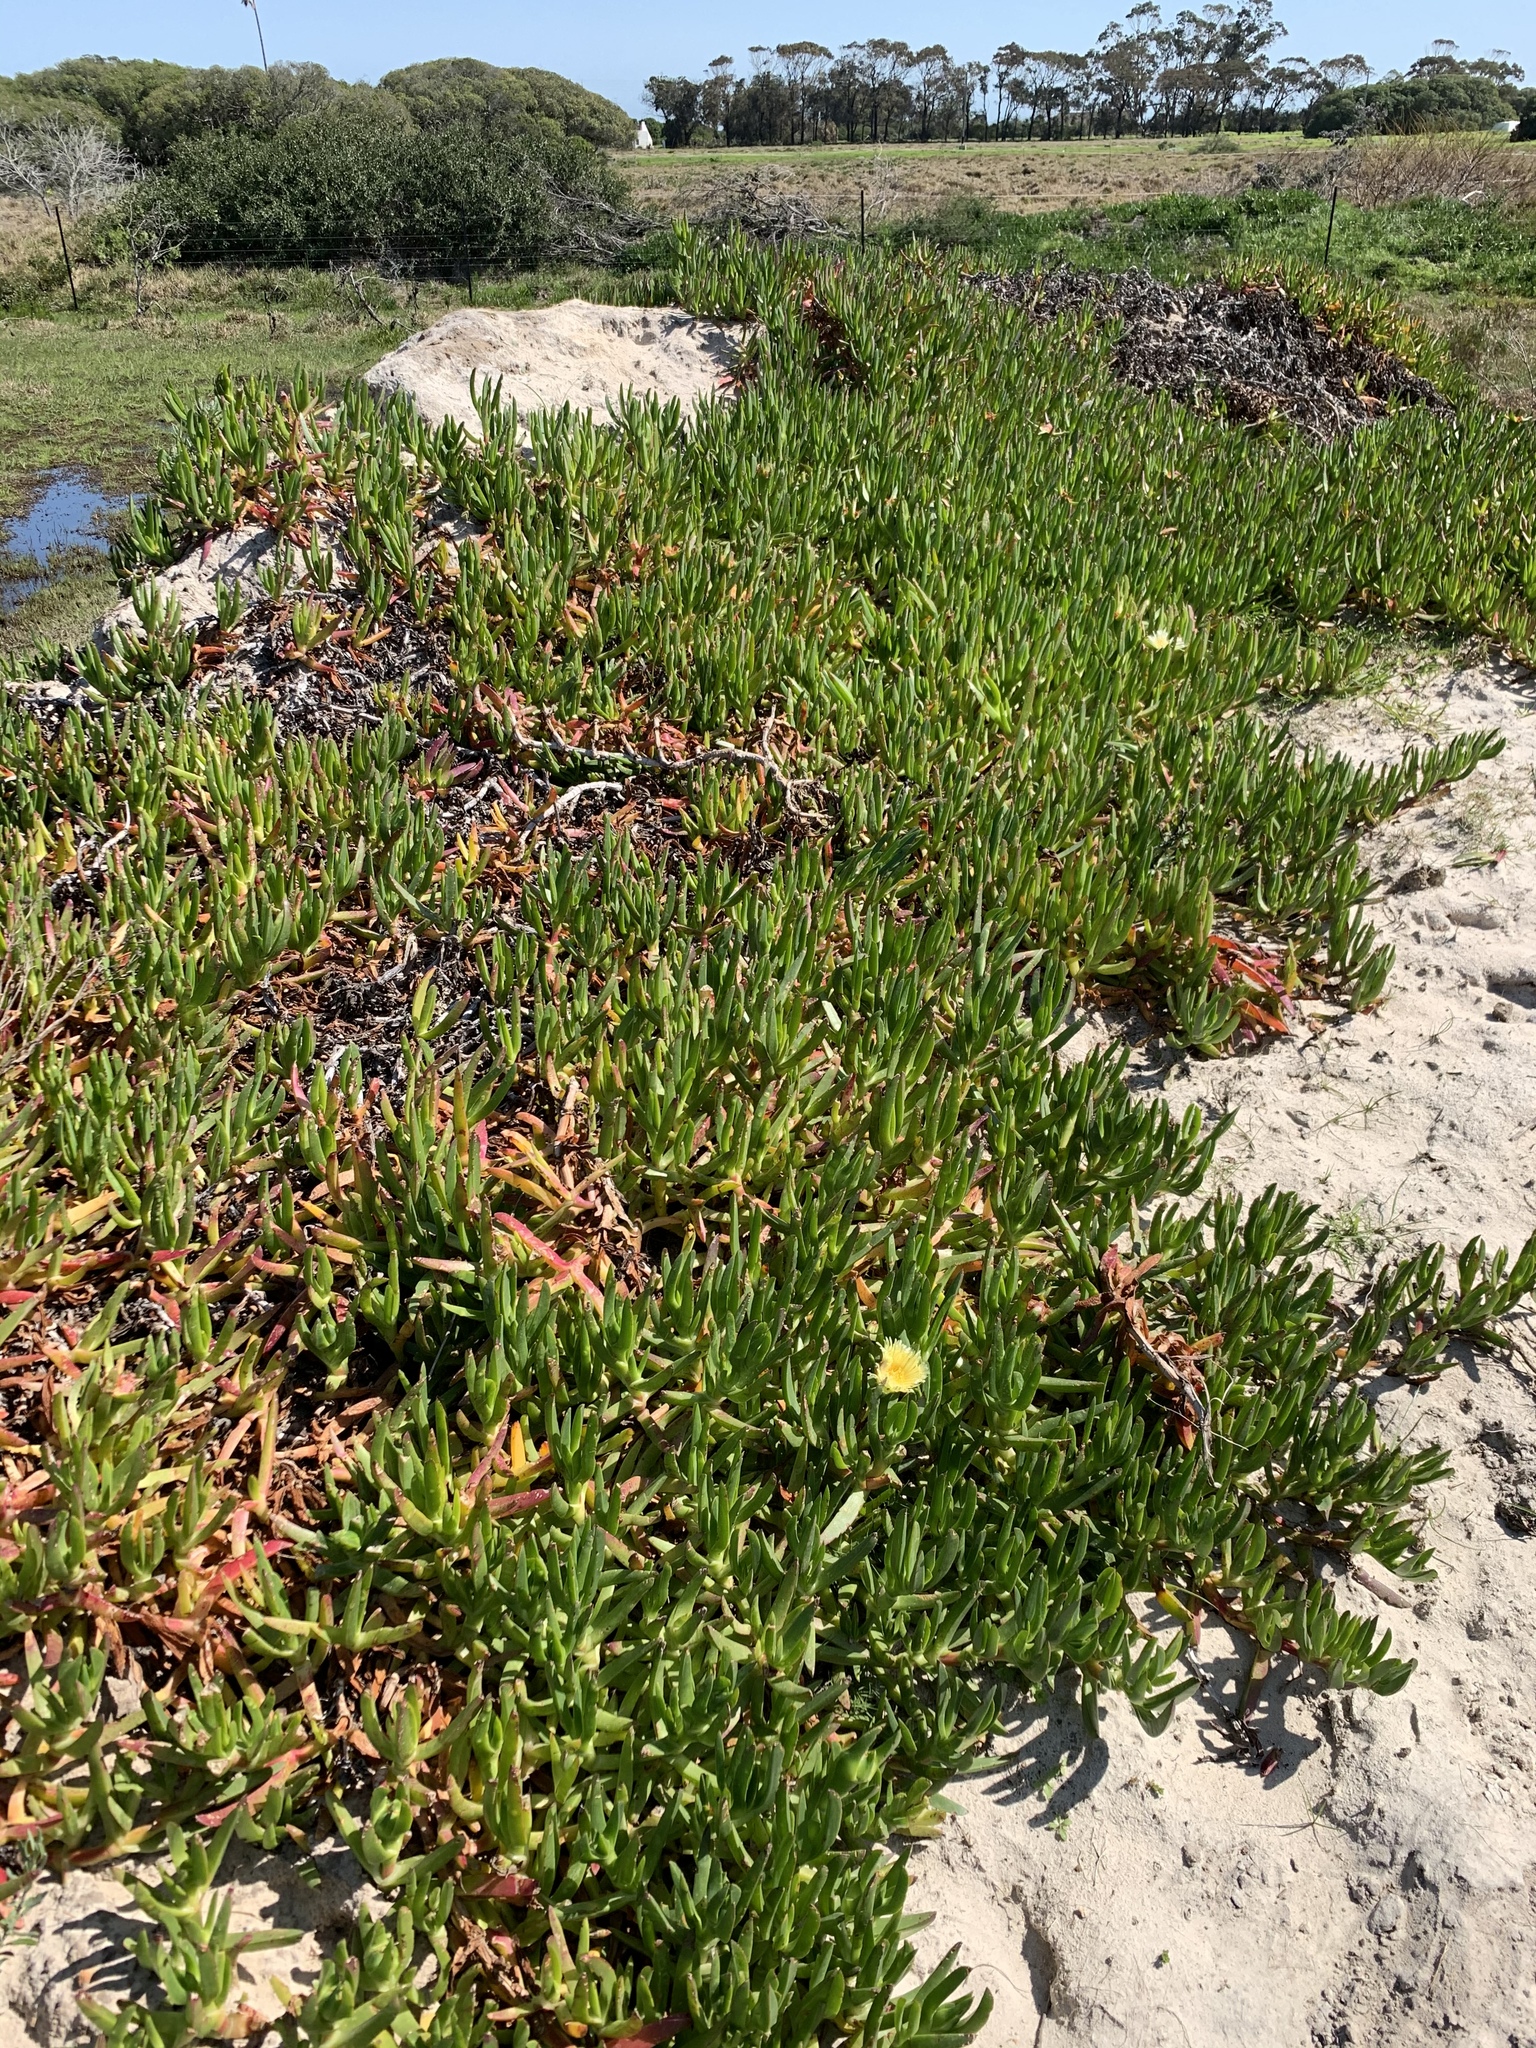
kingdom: Plantae
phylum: Tracheophyta
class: Magnoliopsida
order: Caryophyllales
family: Aizoaceae
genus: Carpobrotus
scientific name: Carpobrotus edulis
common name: Hottentot-fig
